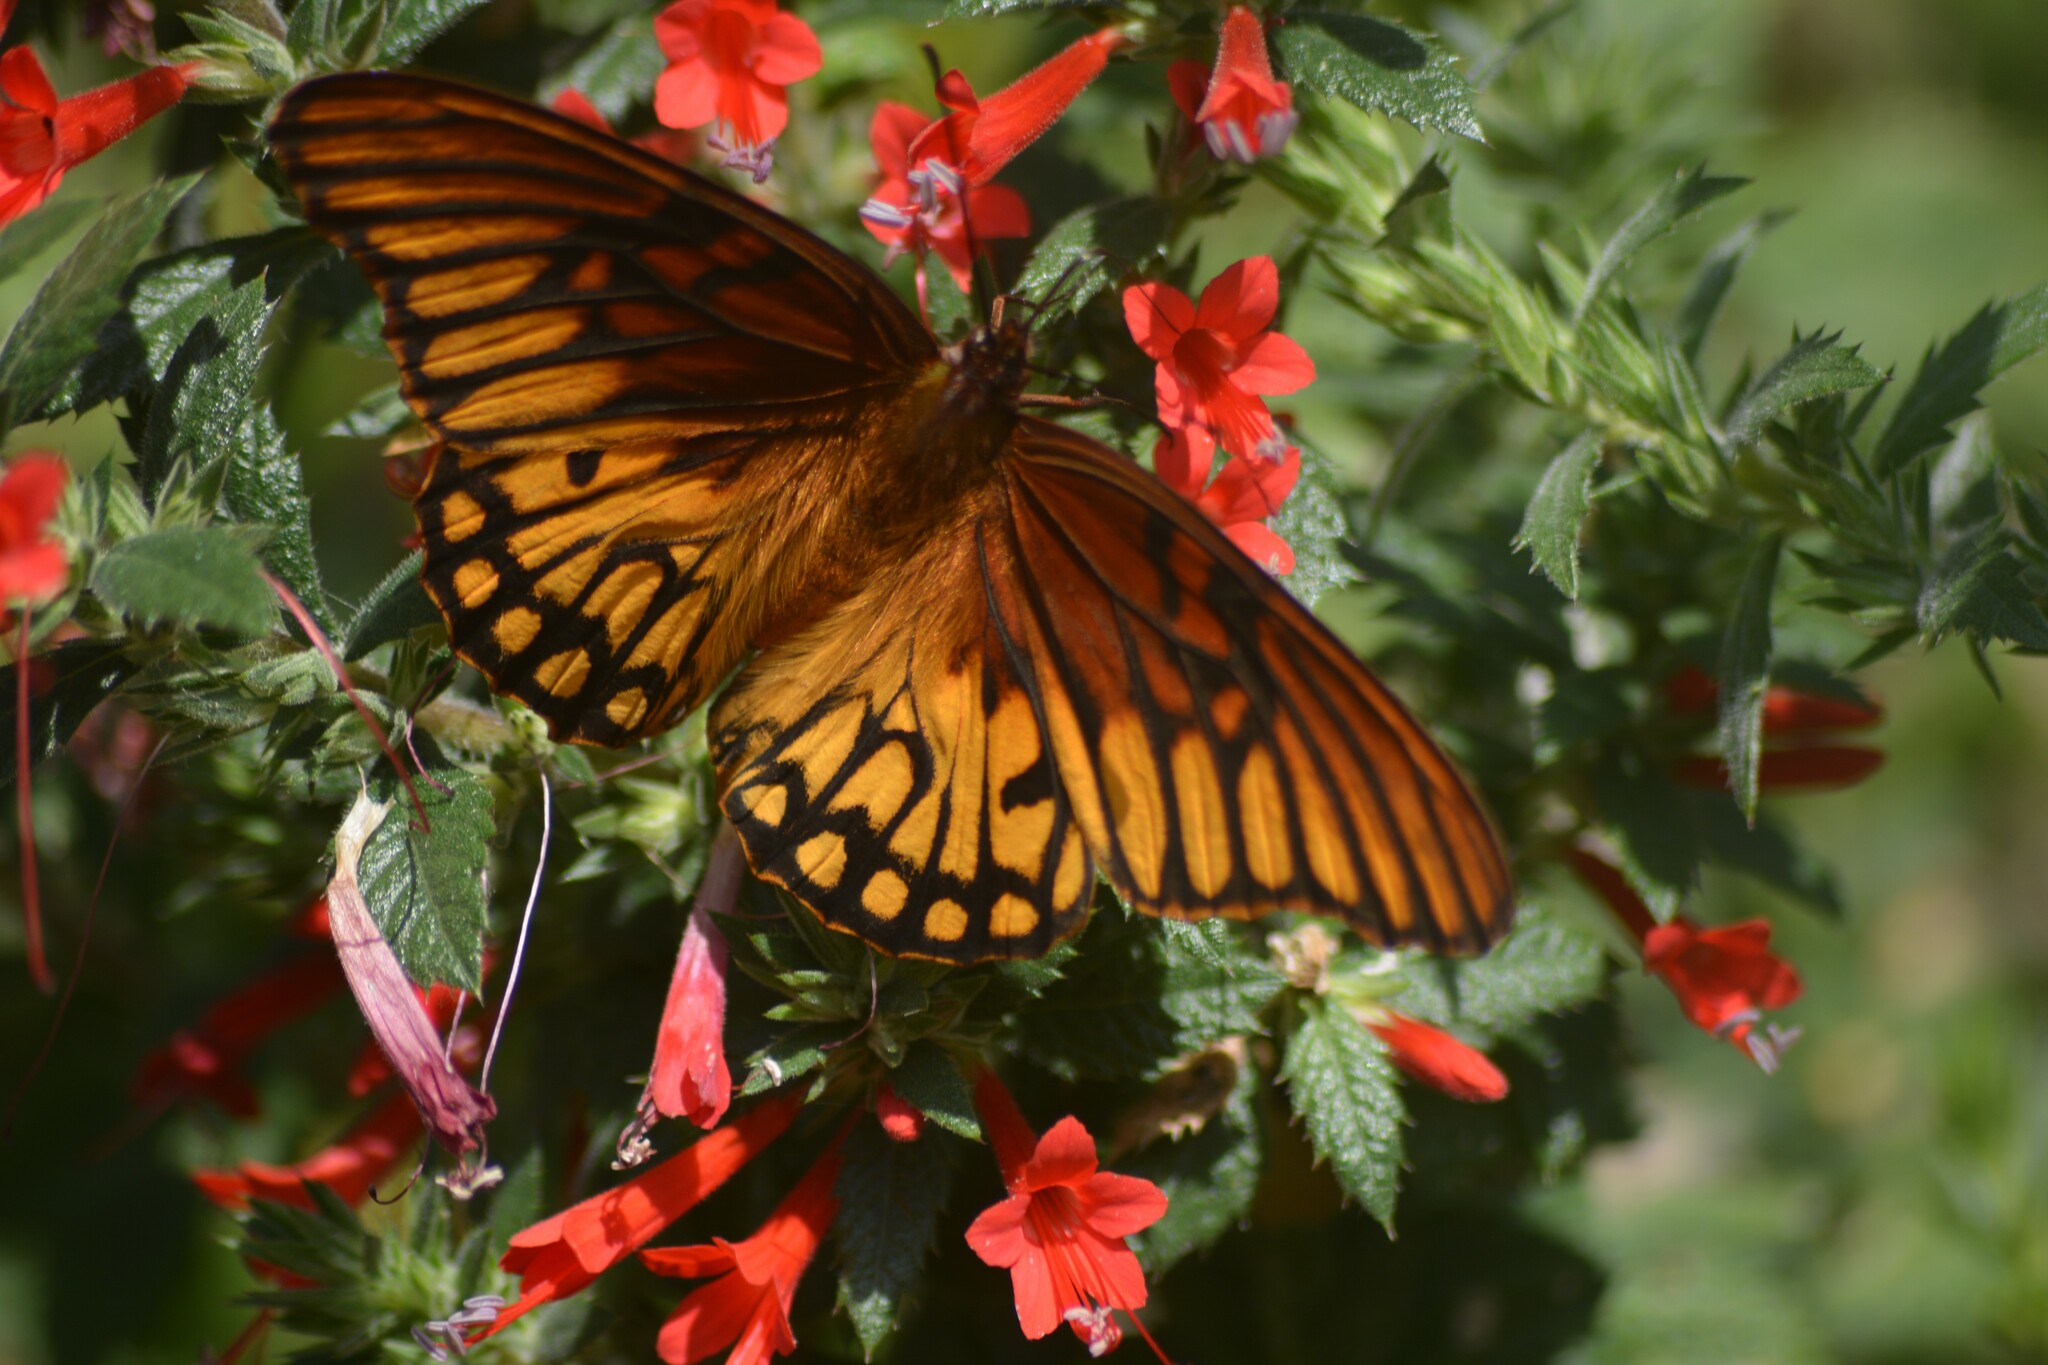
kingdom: Animalia
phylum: Arthropoda
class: Insecta
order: Lepidoptera
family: Nymphalidae
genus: Dione
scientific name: Dione moneta
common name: Mexican silverspot
